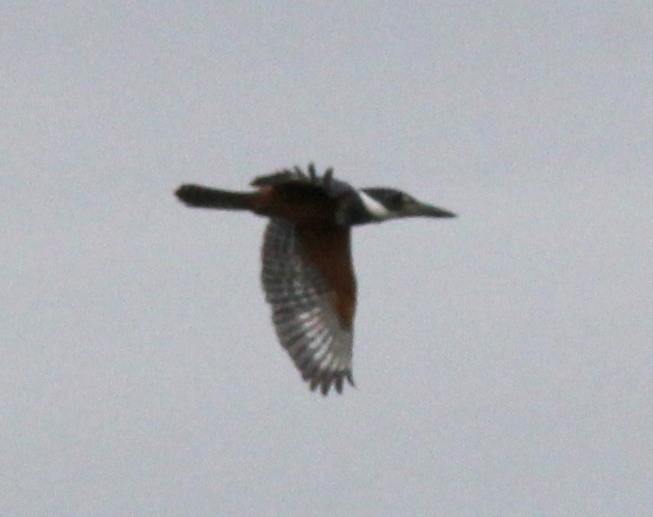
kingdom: Animalia
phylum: Chordata
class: Aves
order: Coraciiformes
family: Alcedinidae
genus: Megaceryle
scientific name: Megaceryle torquata
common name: Ringed kingfisher
